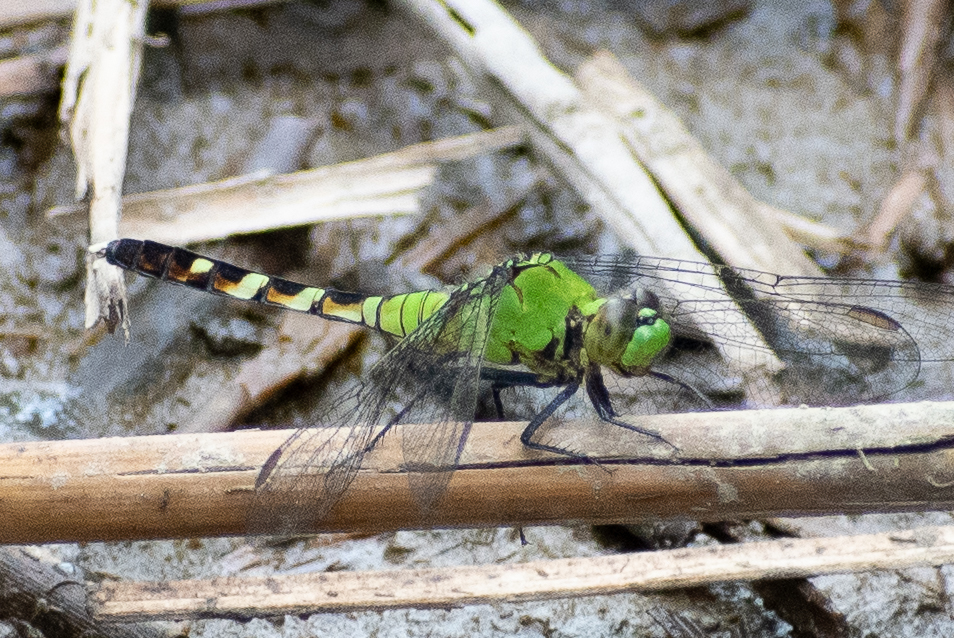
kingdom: Animalia
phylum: Arthropoda
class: Insecta
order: Odonata
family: Libellulidae
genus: Erythemis
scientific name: Erythemis simplicicollis
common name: Eastern pondhawk
